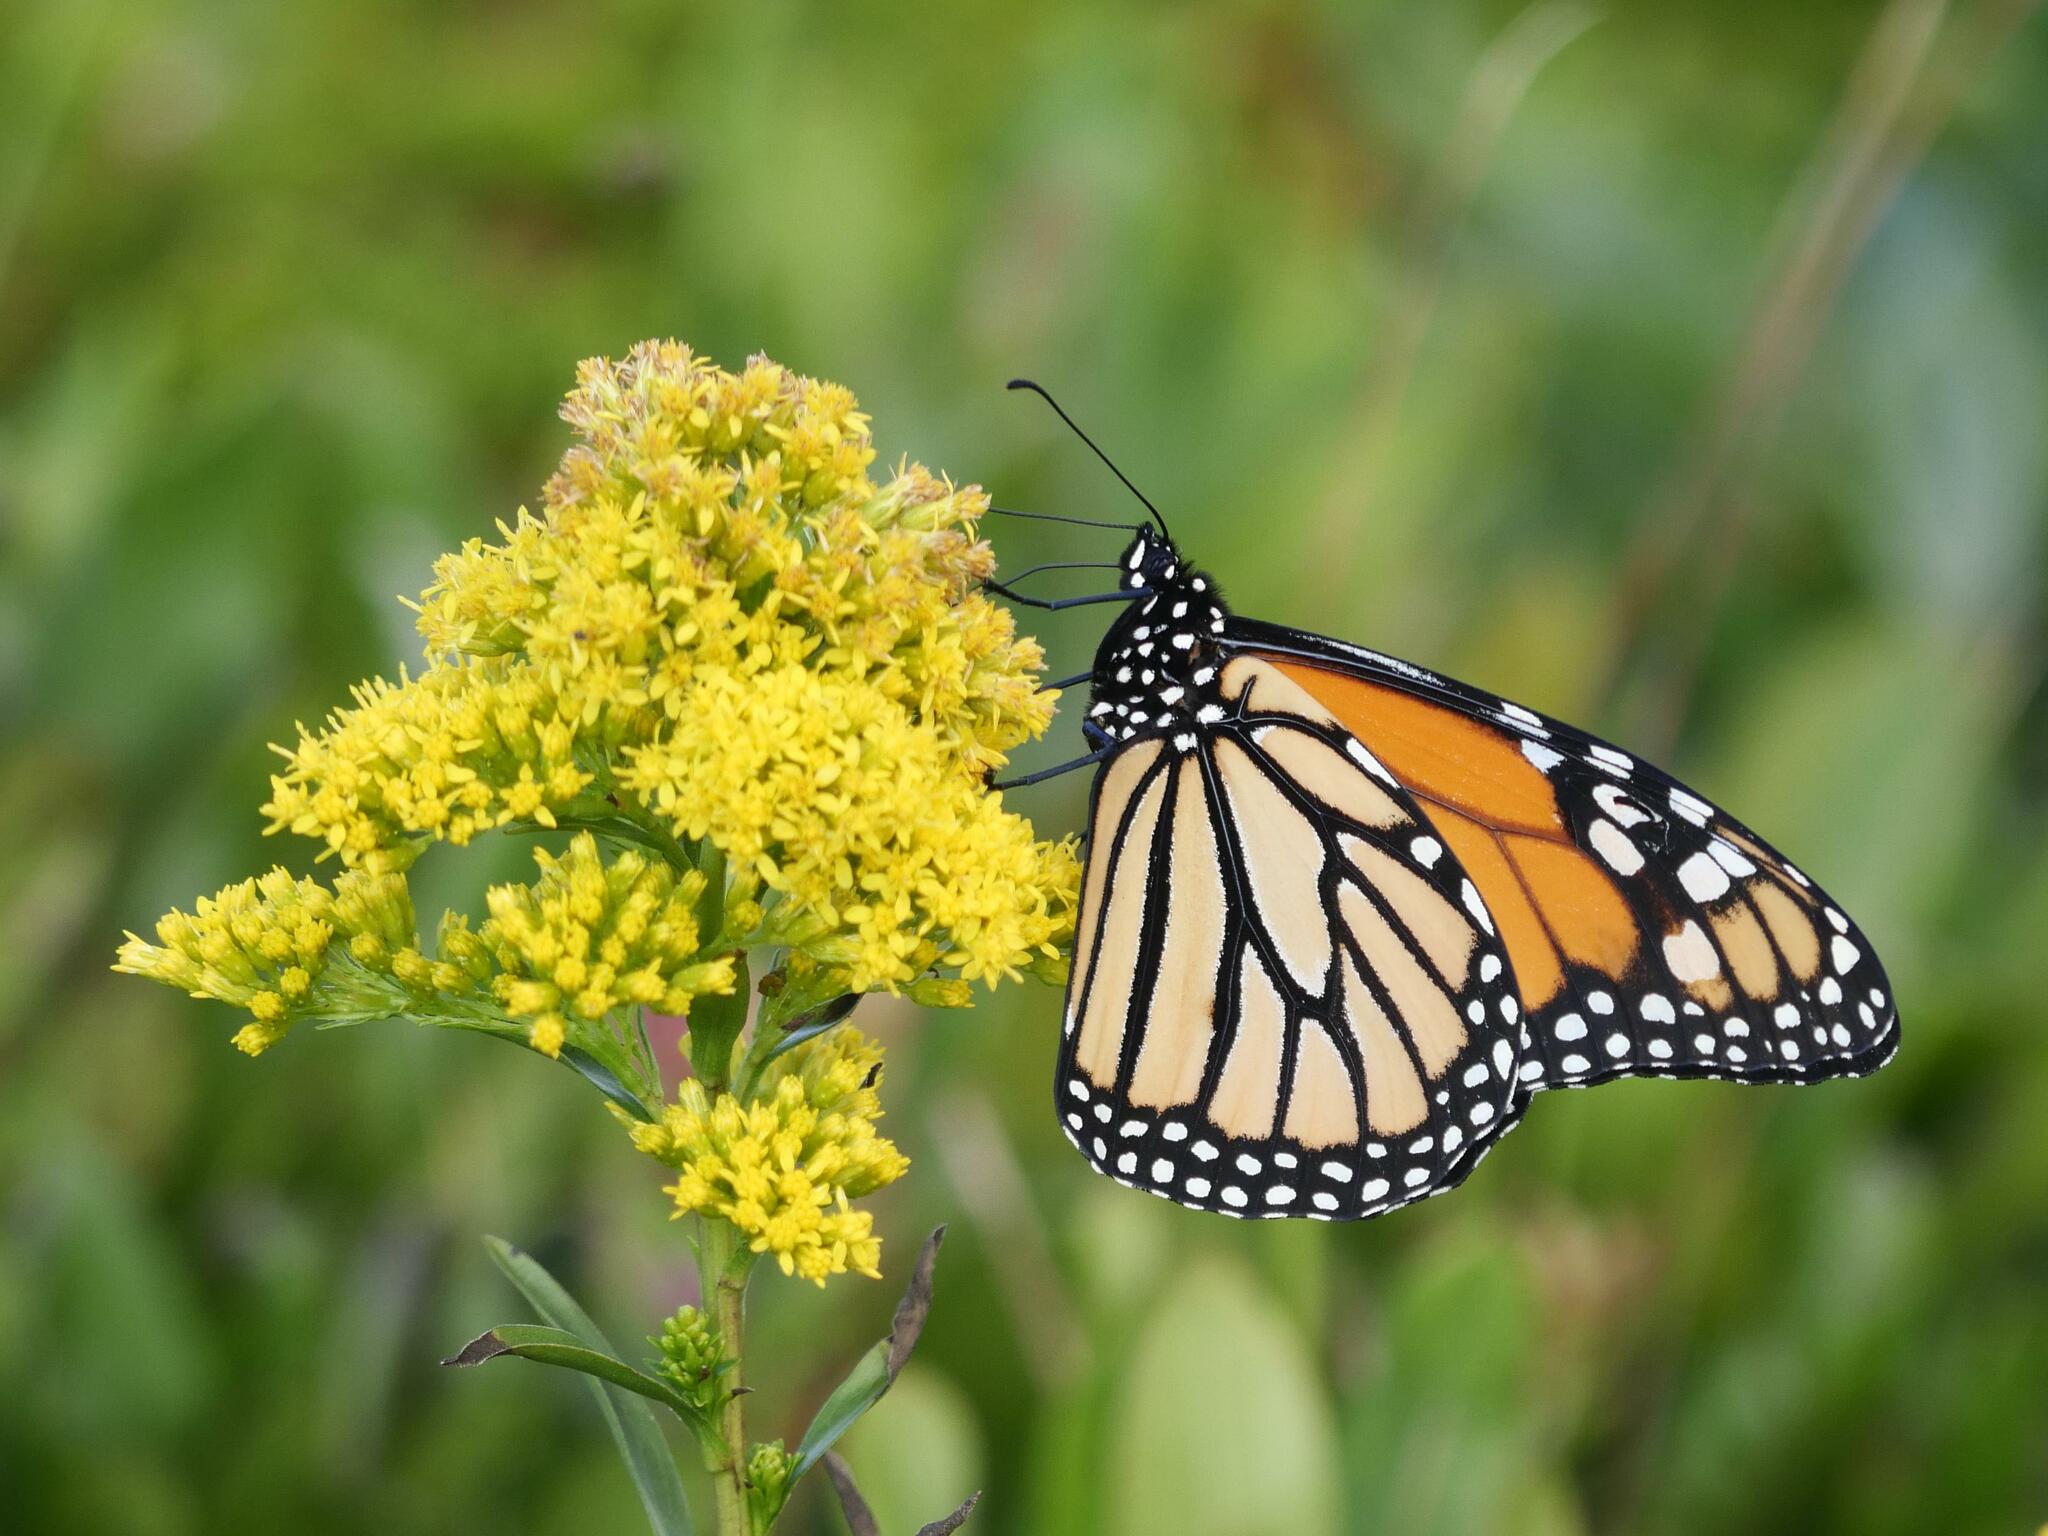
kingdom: Animalia
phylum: Arthropoda
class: Insecta
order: Lepidoptera
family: Nymphalidae
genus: Danaus
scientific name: Danaus plexippus
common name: Monarch
